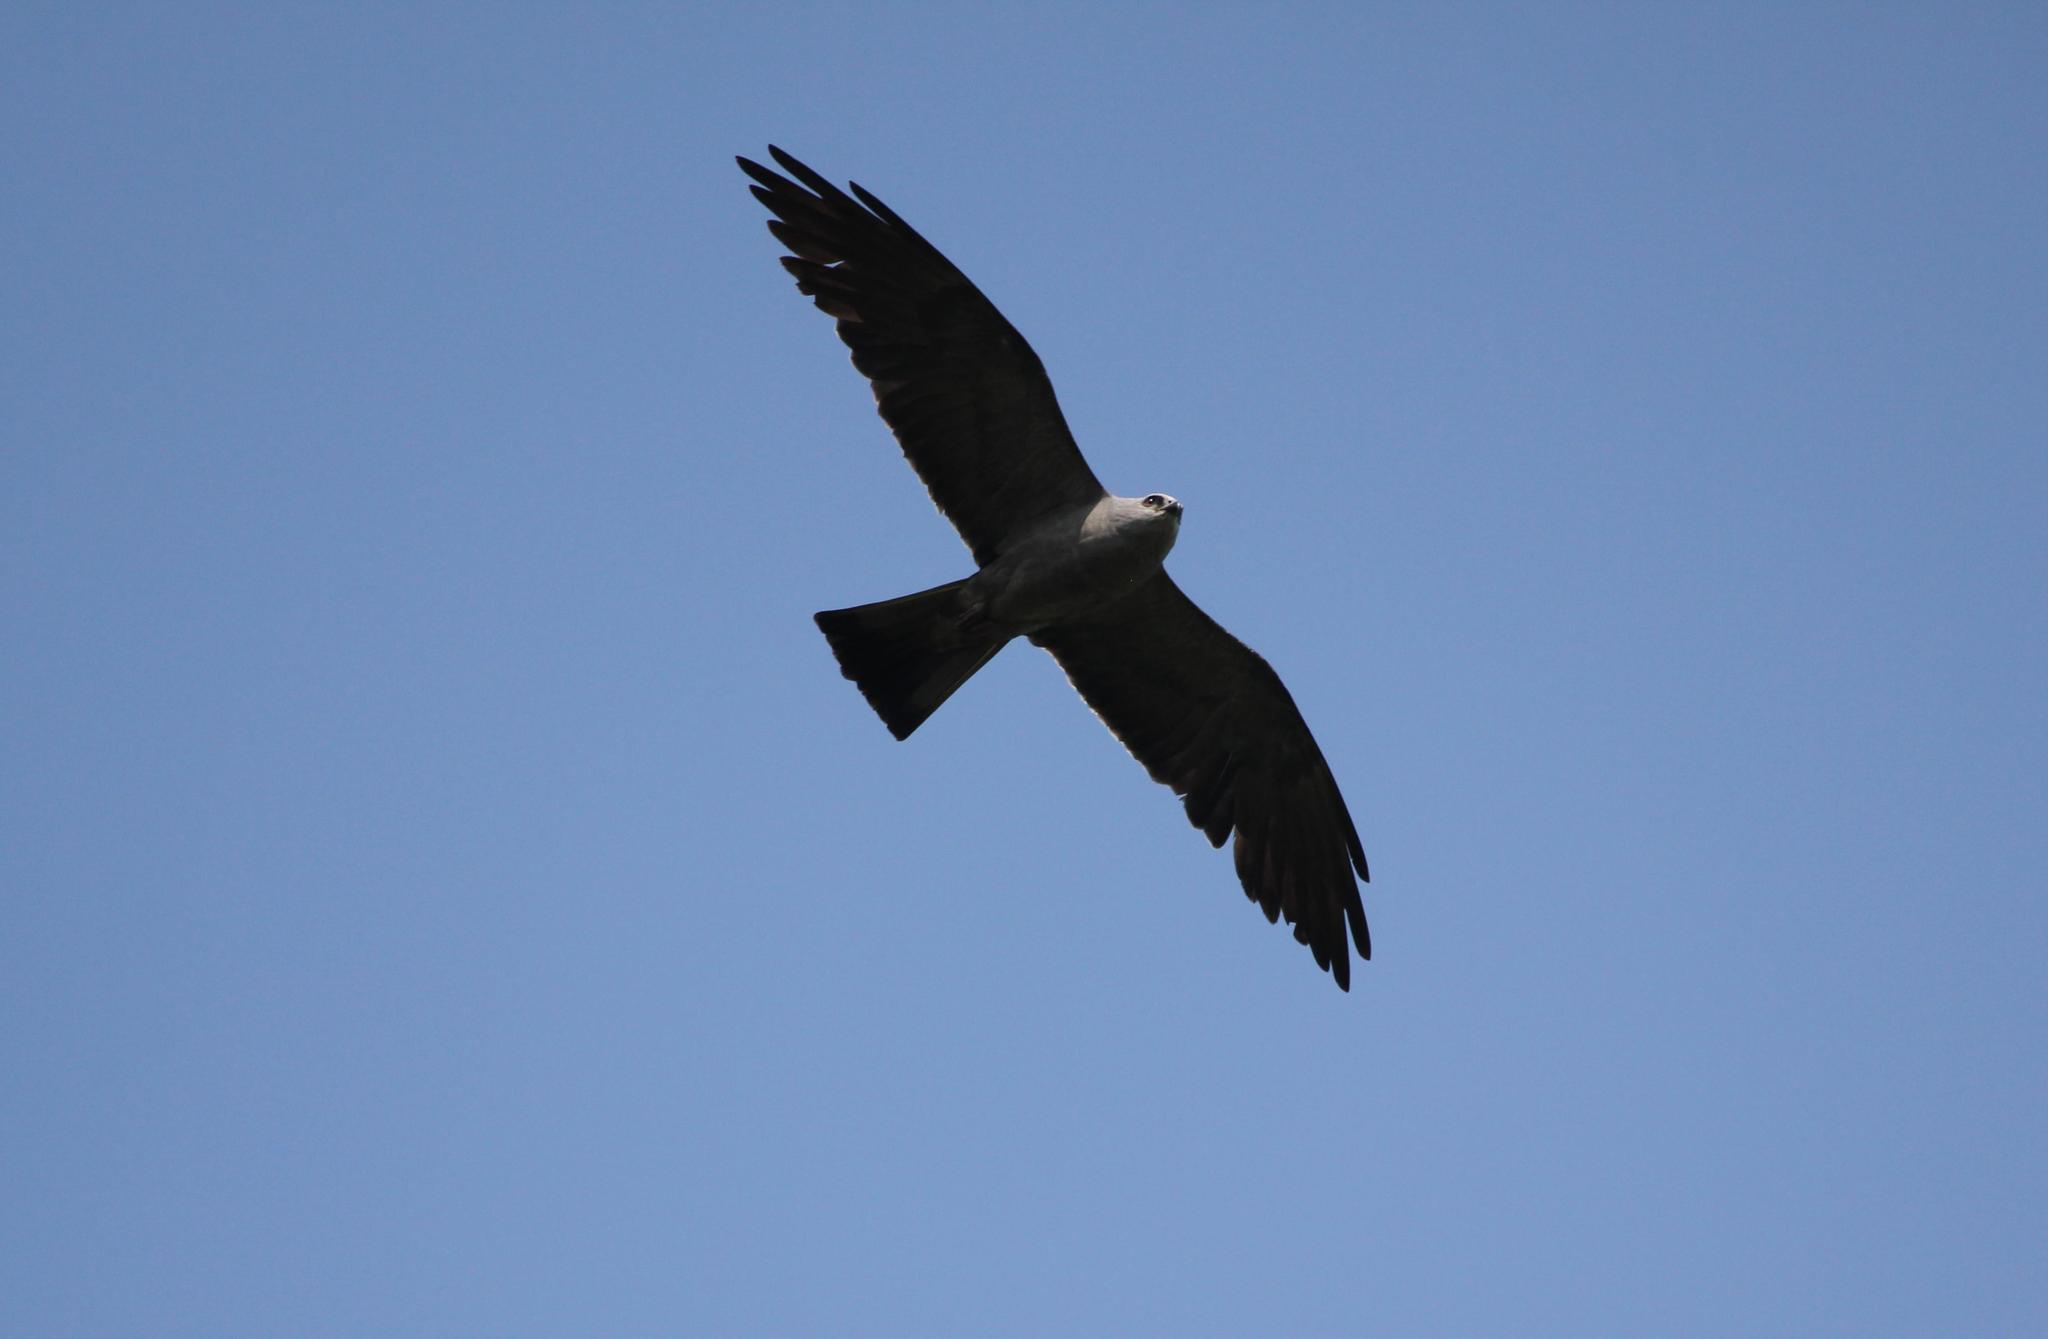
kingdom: Animalia
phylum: Chordata
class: Aves
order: Accipitriformes
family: Accipitridae
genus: Ictinia
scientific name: Ictinia mississippiensis
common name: Mississippi kite
